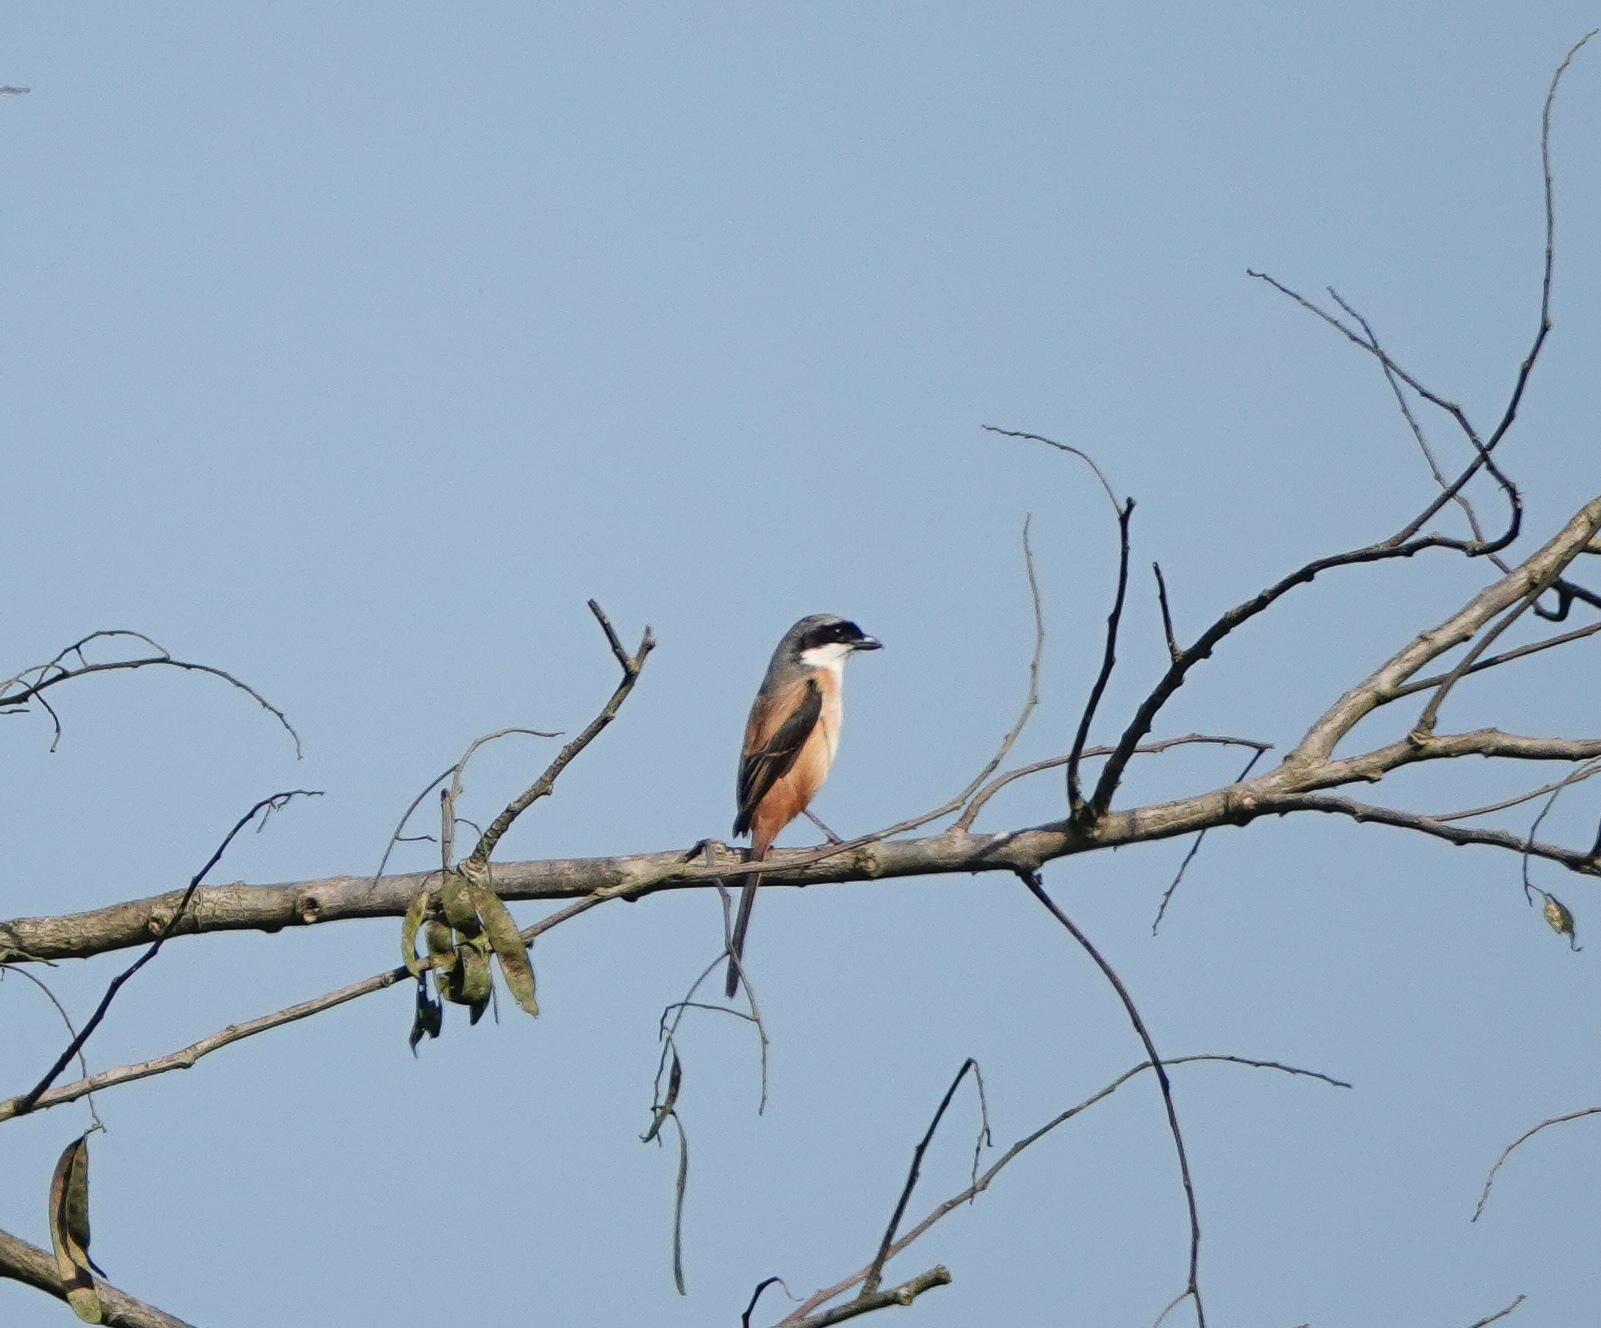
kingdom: Animalia
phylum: Chordata
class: Aves
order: Passeriformes
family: Laniidae
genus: Lanius
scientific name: Lanius schach
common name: Long-tailed shrike
